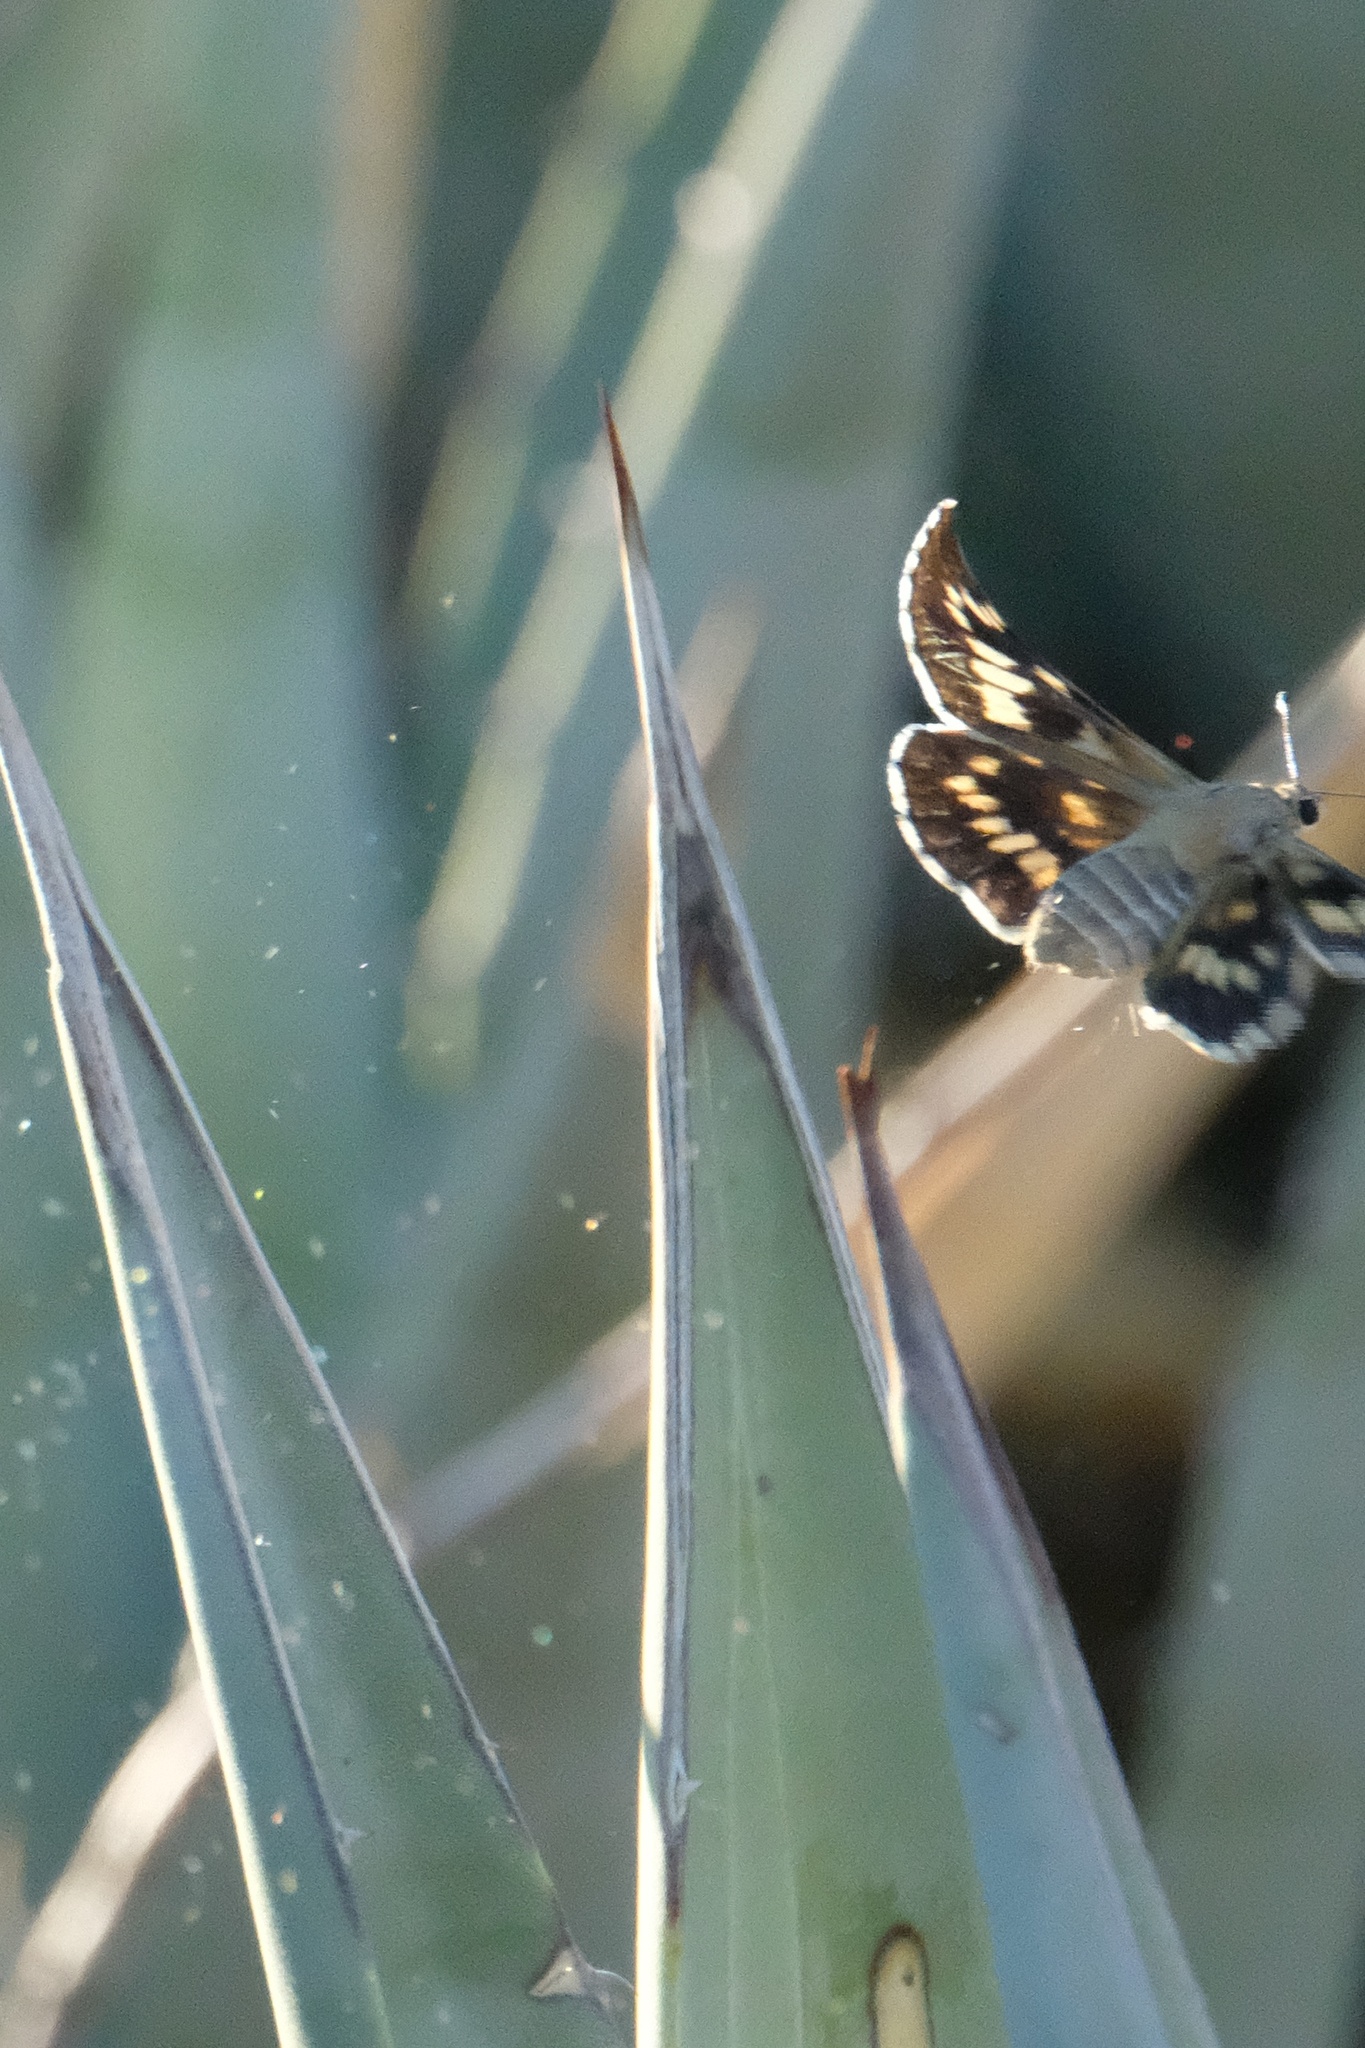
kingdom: Animalia
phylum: Arthropoda
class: Insecta
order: Lepidoptera
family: Hesperiidae
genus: Agathymus
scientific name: Agathymus stephensi
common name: California giant-skipper
